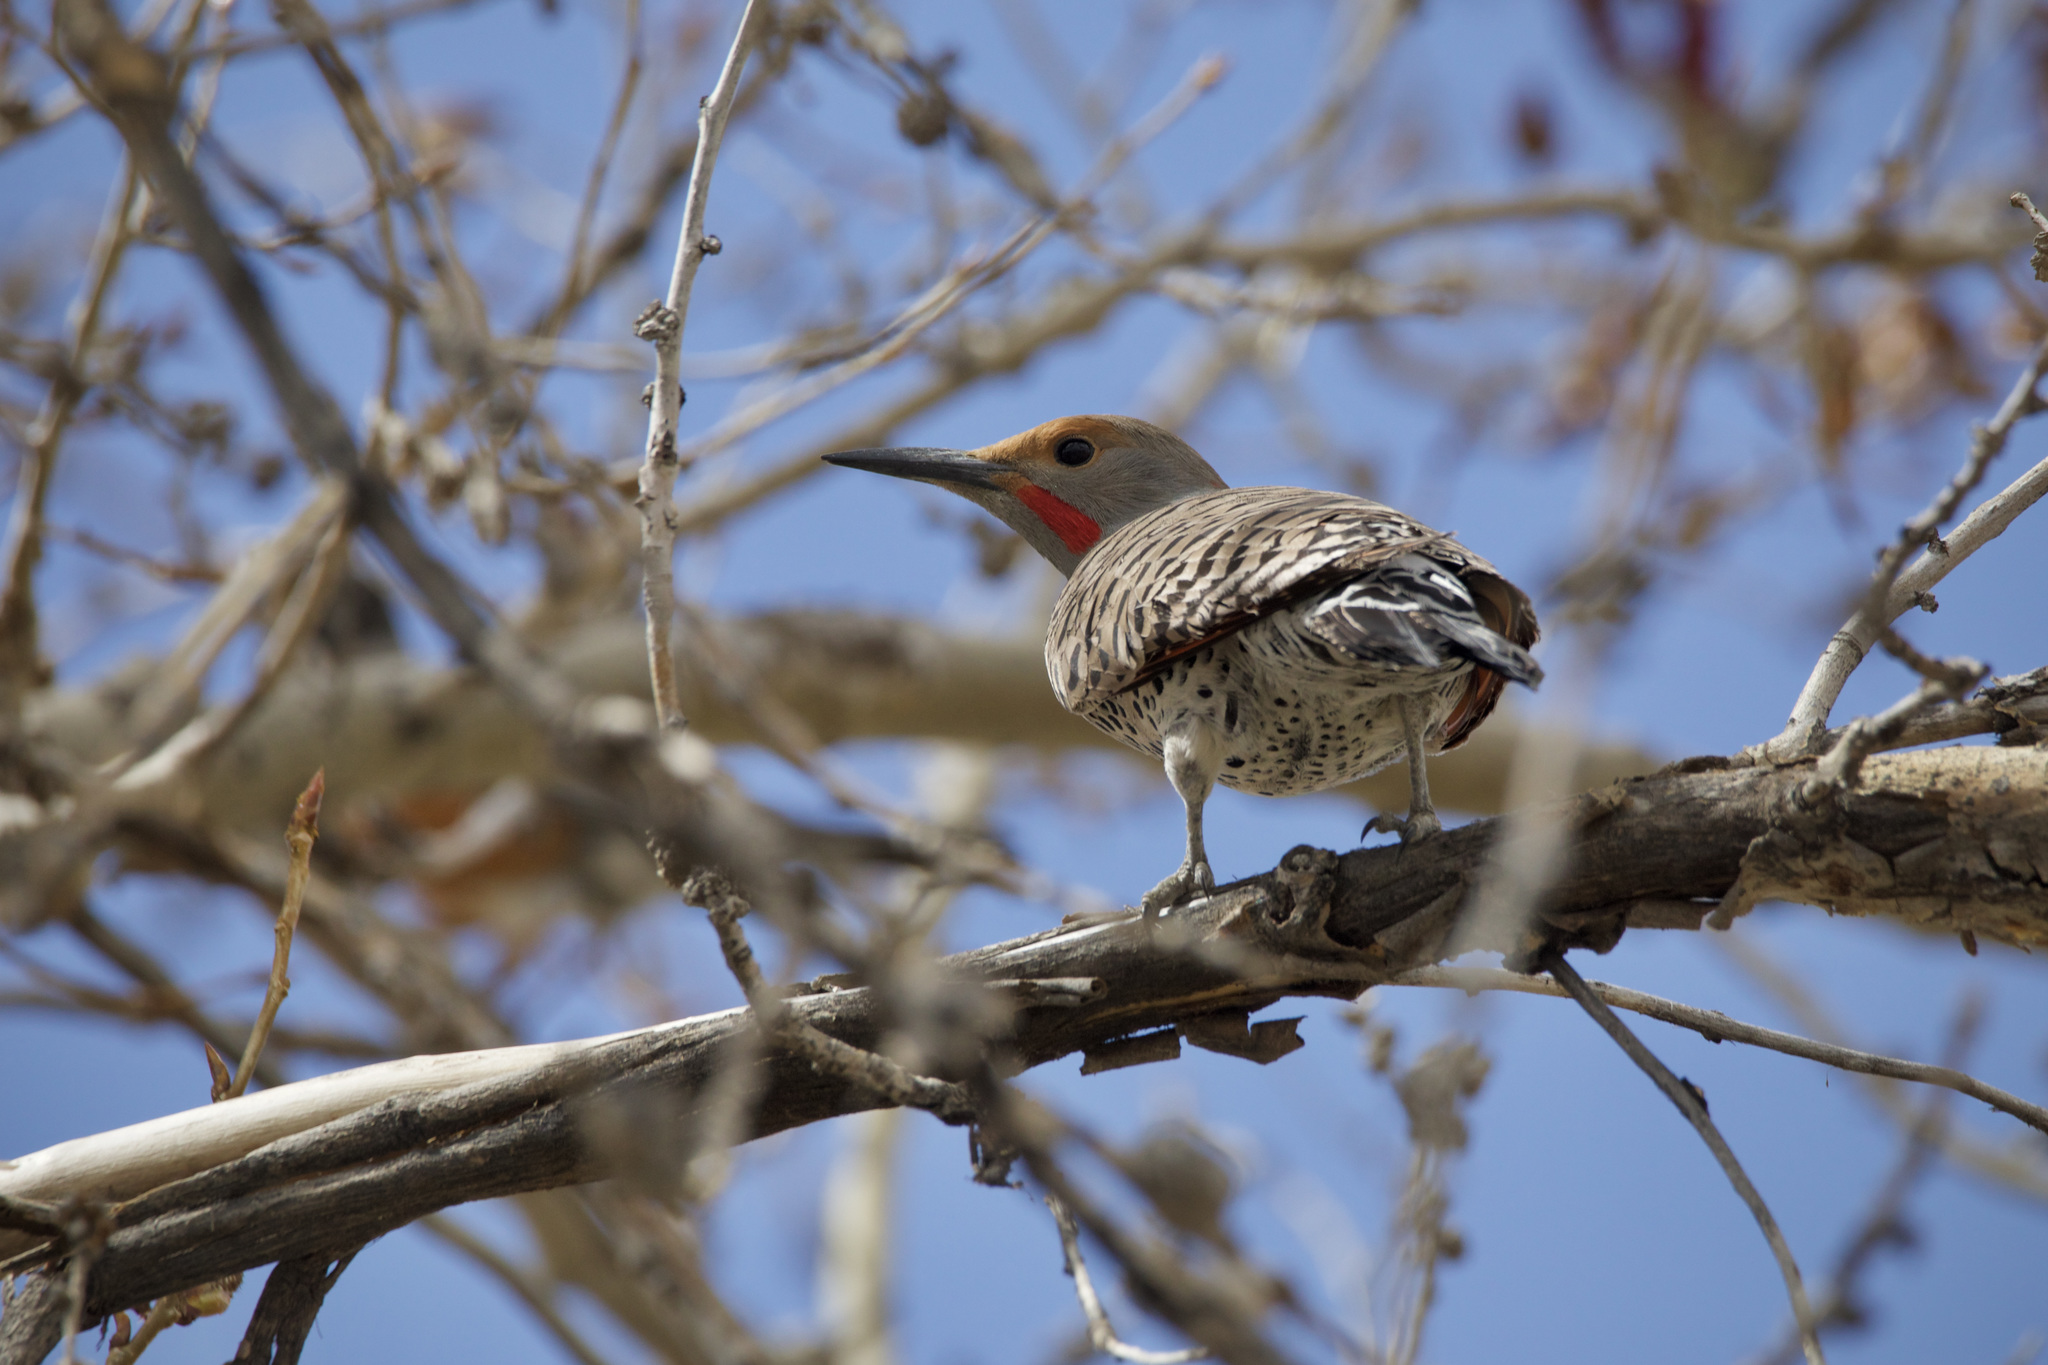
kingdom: Animalia
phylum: Chordata
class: Aves
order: Piciformes
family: Picidae
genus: Colaptes
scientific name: Colaptes auratus
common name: Northern flicker
